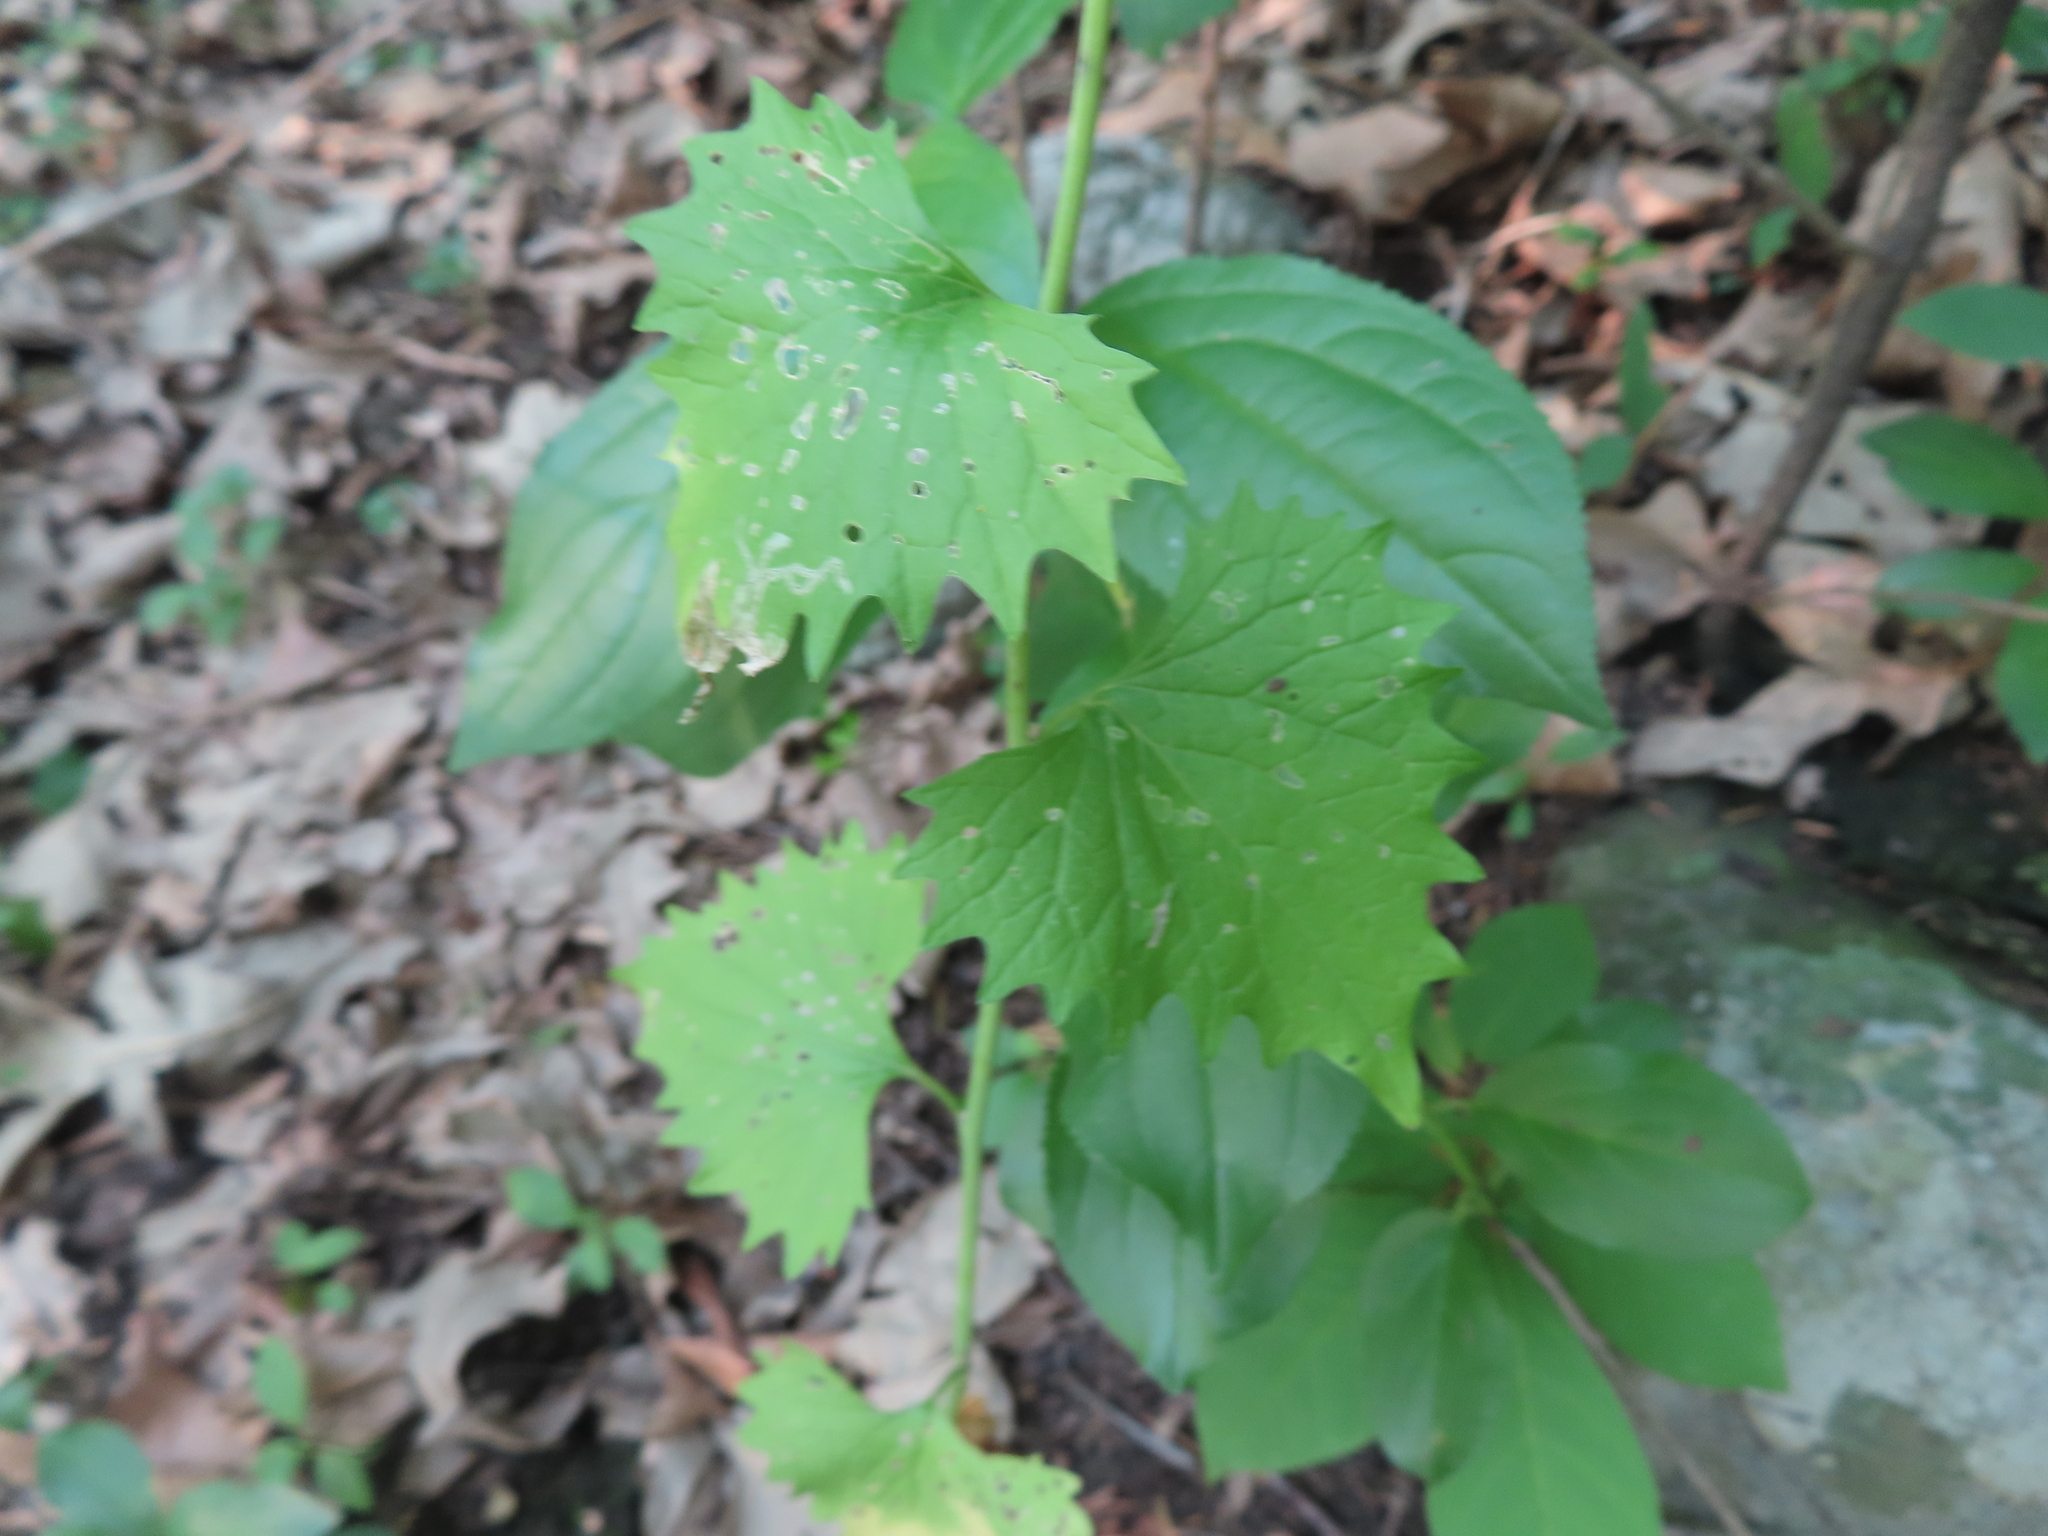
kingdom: Plantae
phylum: Tracheophyta
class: Magnoliopsida
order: Brassicales
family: Brassicaceae
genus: Alliaria
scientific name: Alliaria petiolata
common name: Garlic mustard
